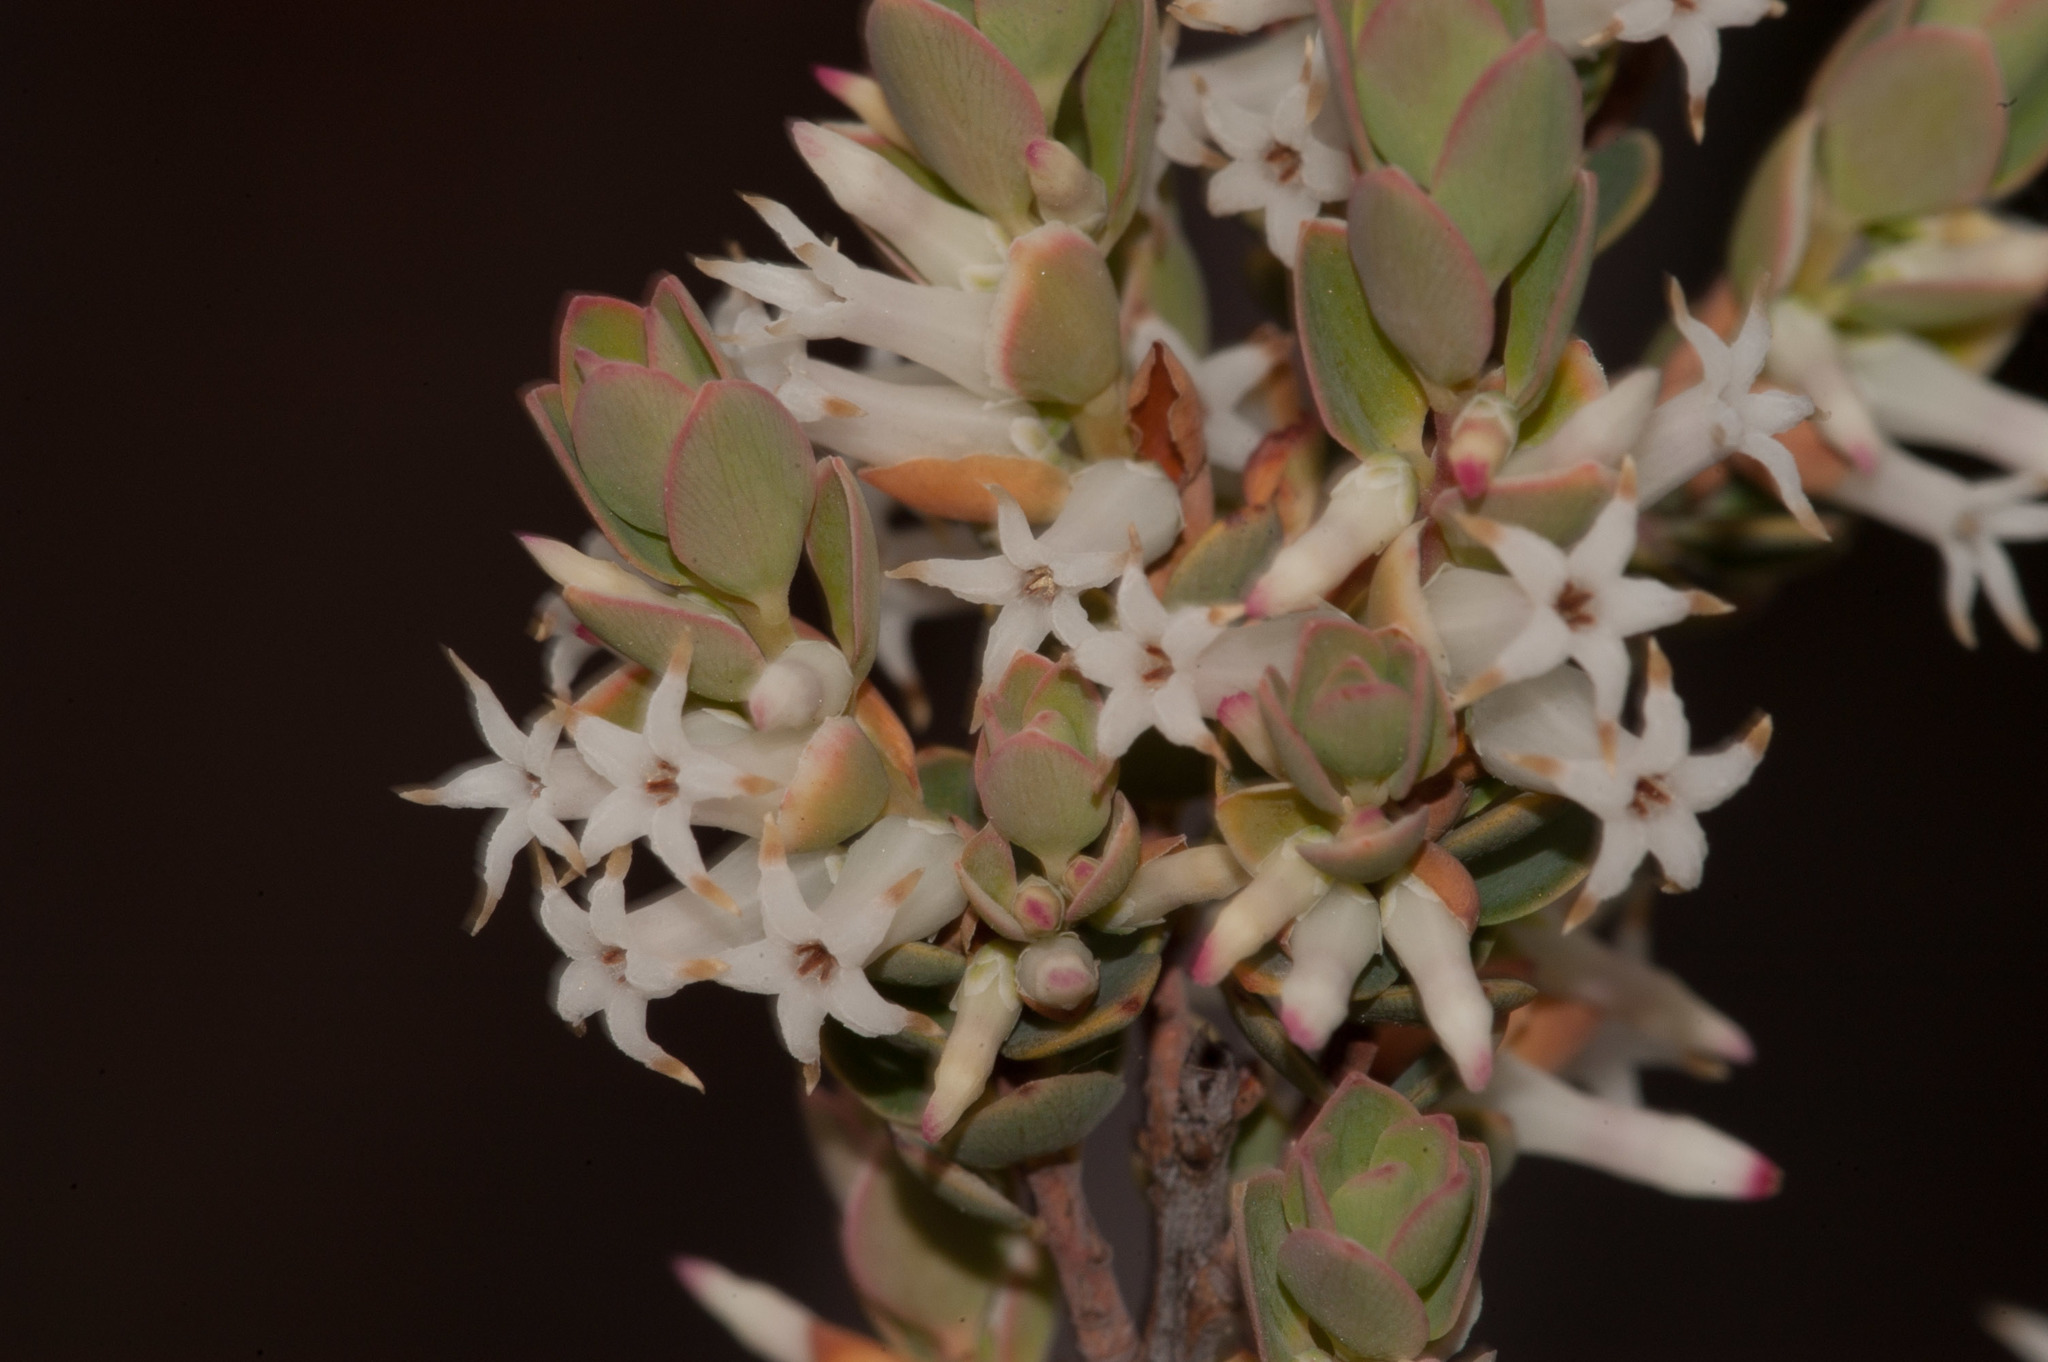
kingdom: Plantae
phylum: Tracheophyta
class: Magnoliopsida
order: Ericales
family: Ericaceae
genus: Brachyloma
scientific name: Brachyloma daphnoides
